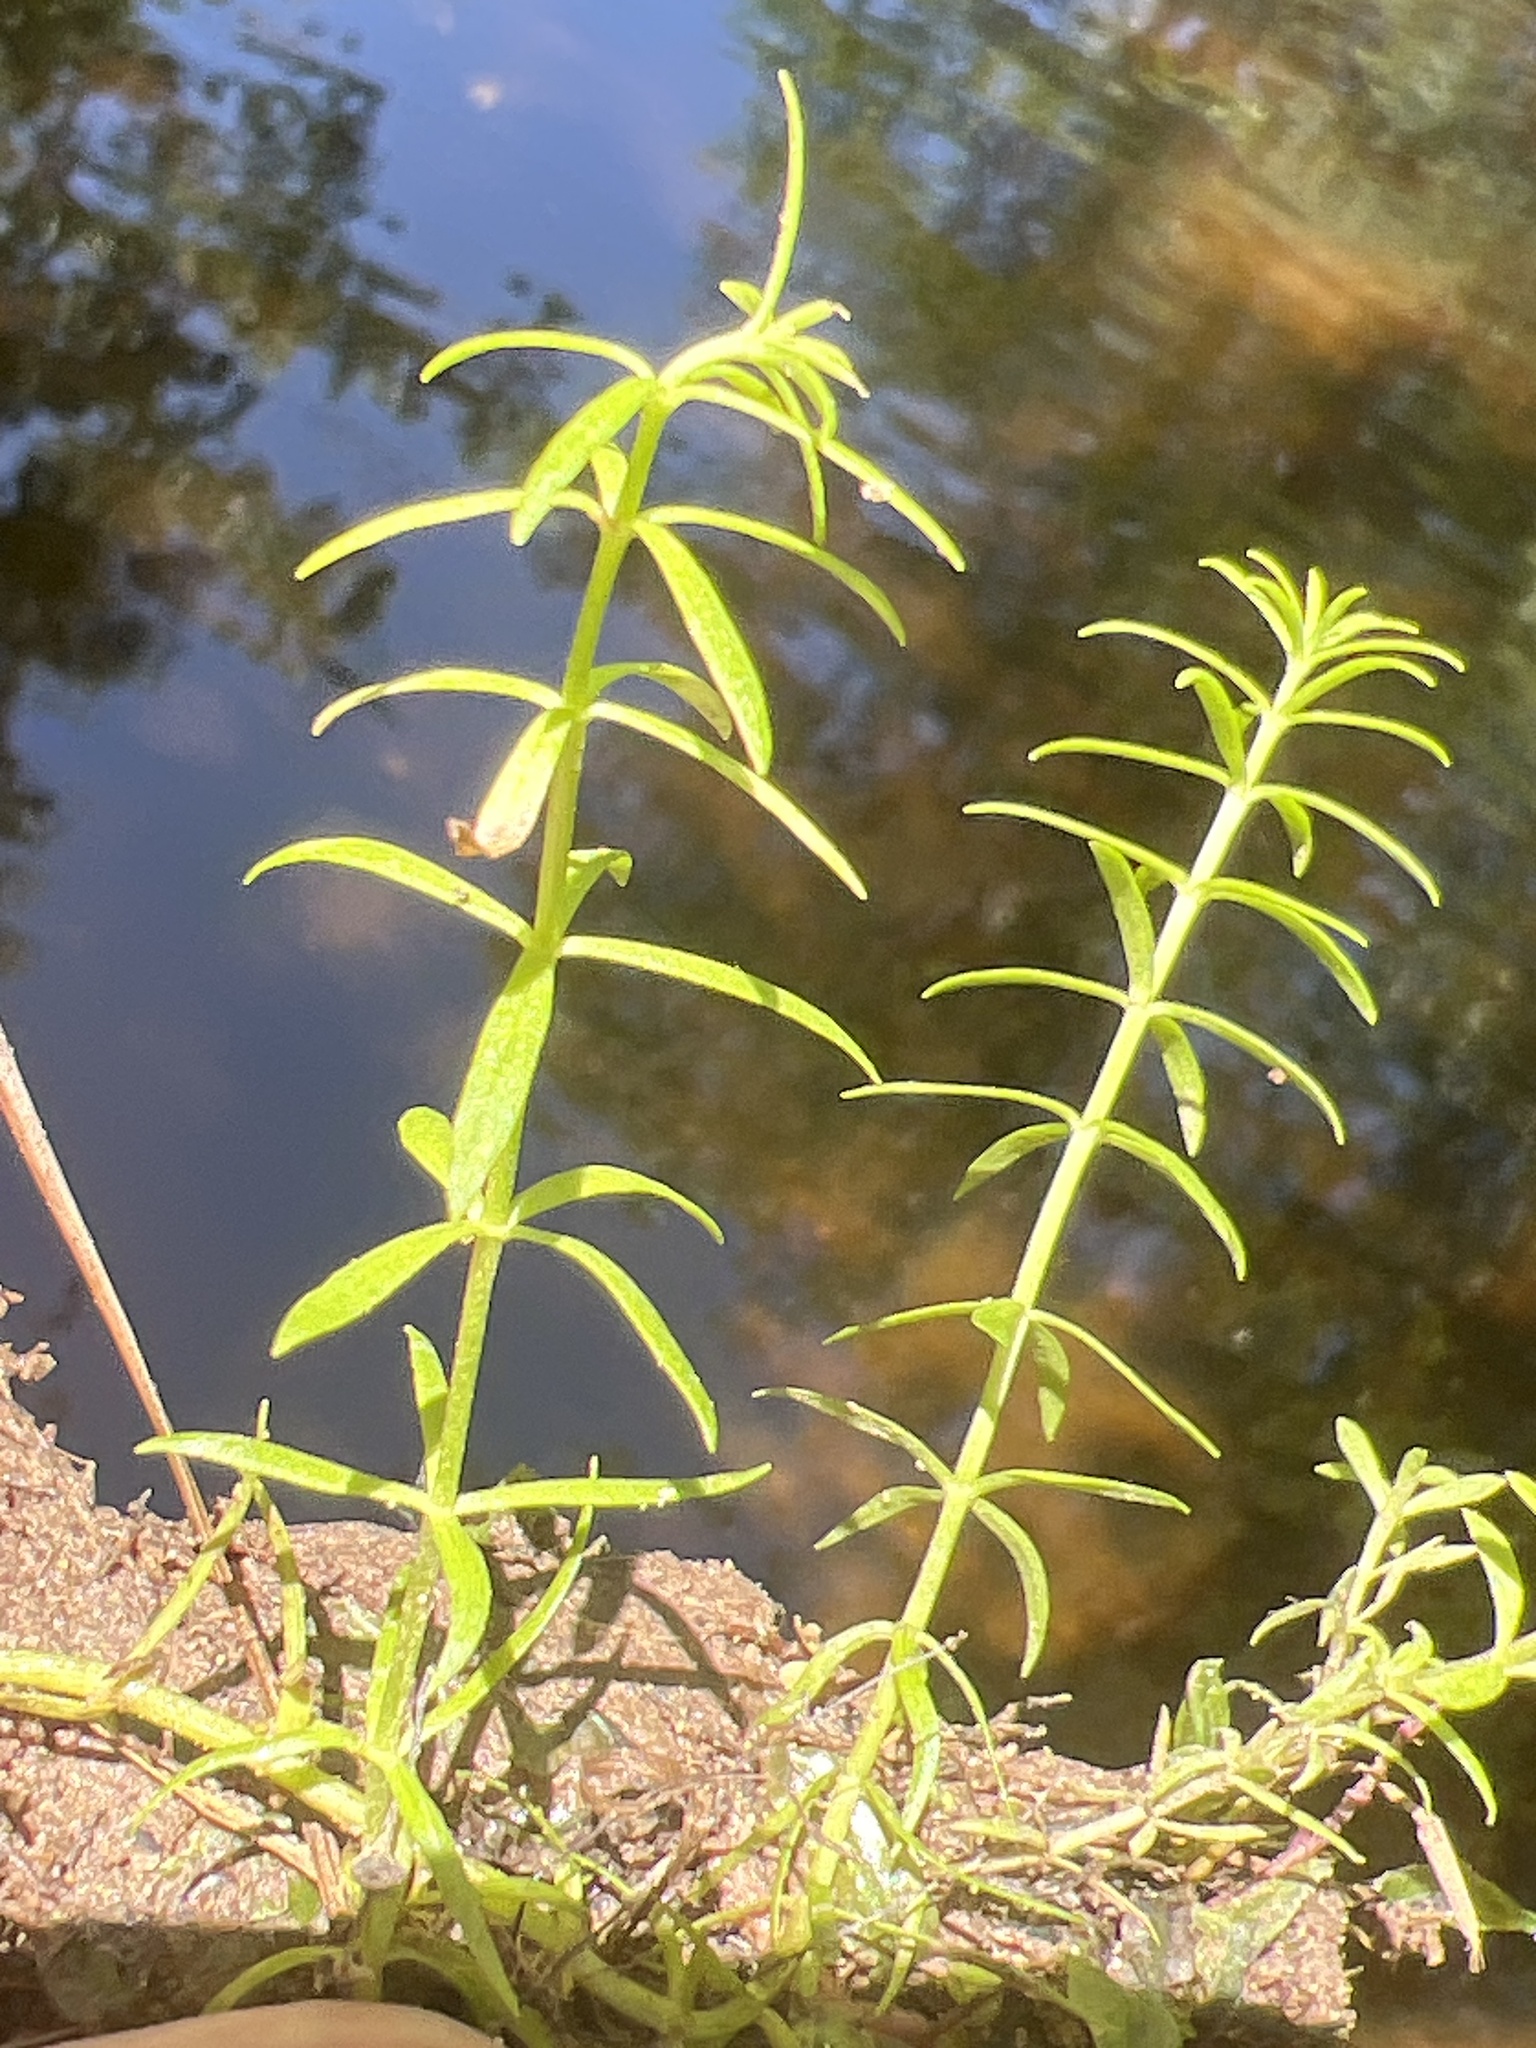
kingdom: Plantae
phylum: Tracheophyta
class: Magnoliopsida
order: Asterales
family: Asteraceae
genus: Sclerolepis
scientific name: Sclerolepis uniflora
